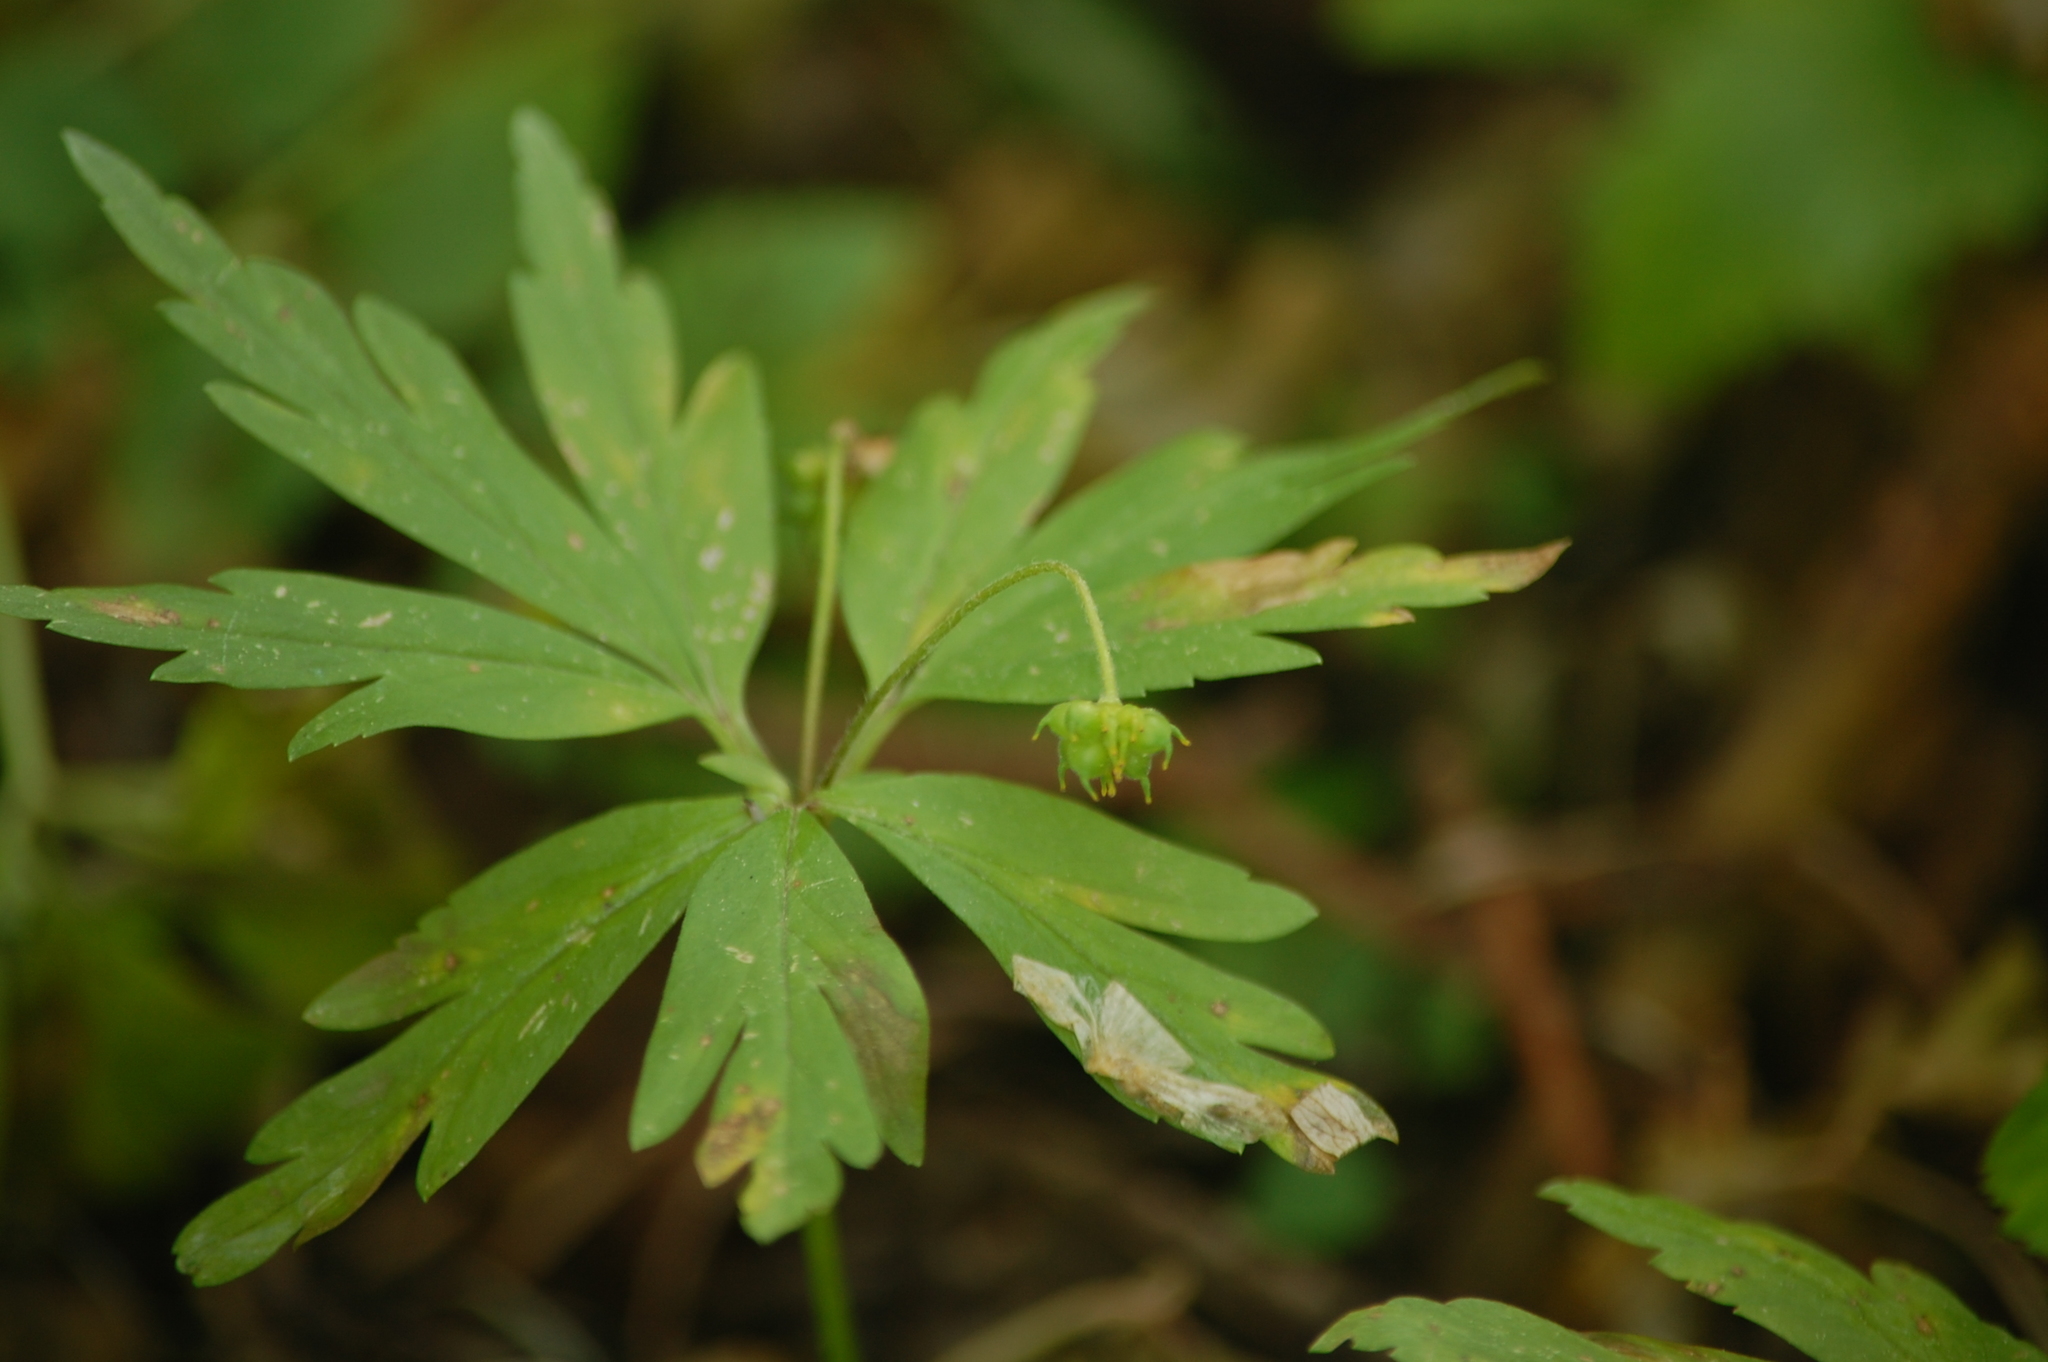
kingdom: Plantae
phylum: Tracheophyta
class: Magnoliopsida
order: Ranunculales
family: Ranunculaceae
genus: Anemone
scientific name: Anemone ranunculoides
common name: Yellow anemone
